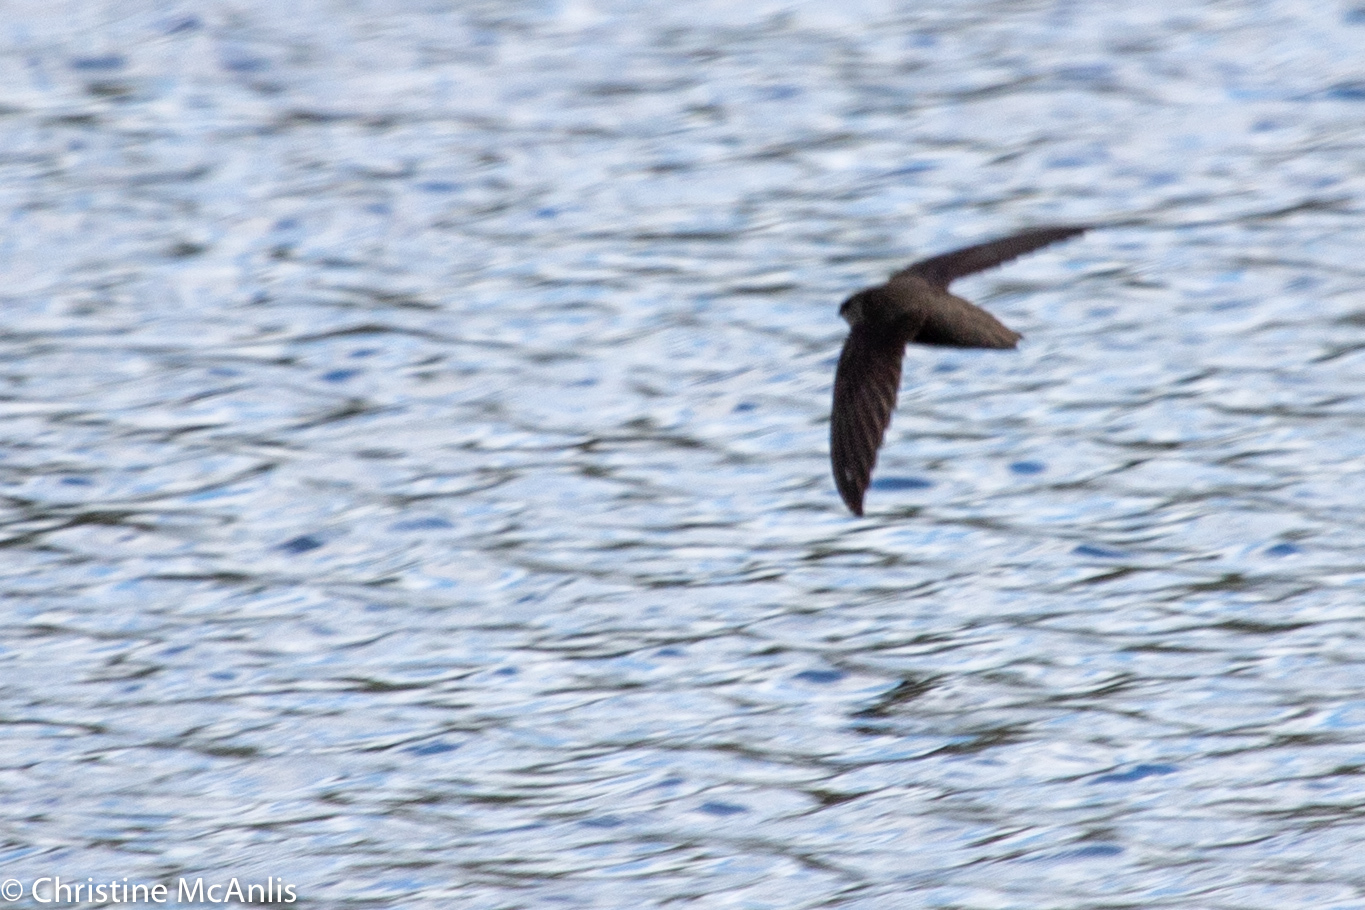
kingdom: Animalia
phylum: Chordata
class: Aves
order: Apodiformes
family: Apodidae
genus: Chaetura
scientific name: Chaetura pelagica
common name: Chimney swift
